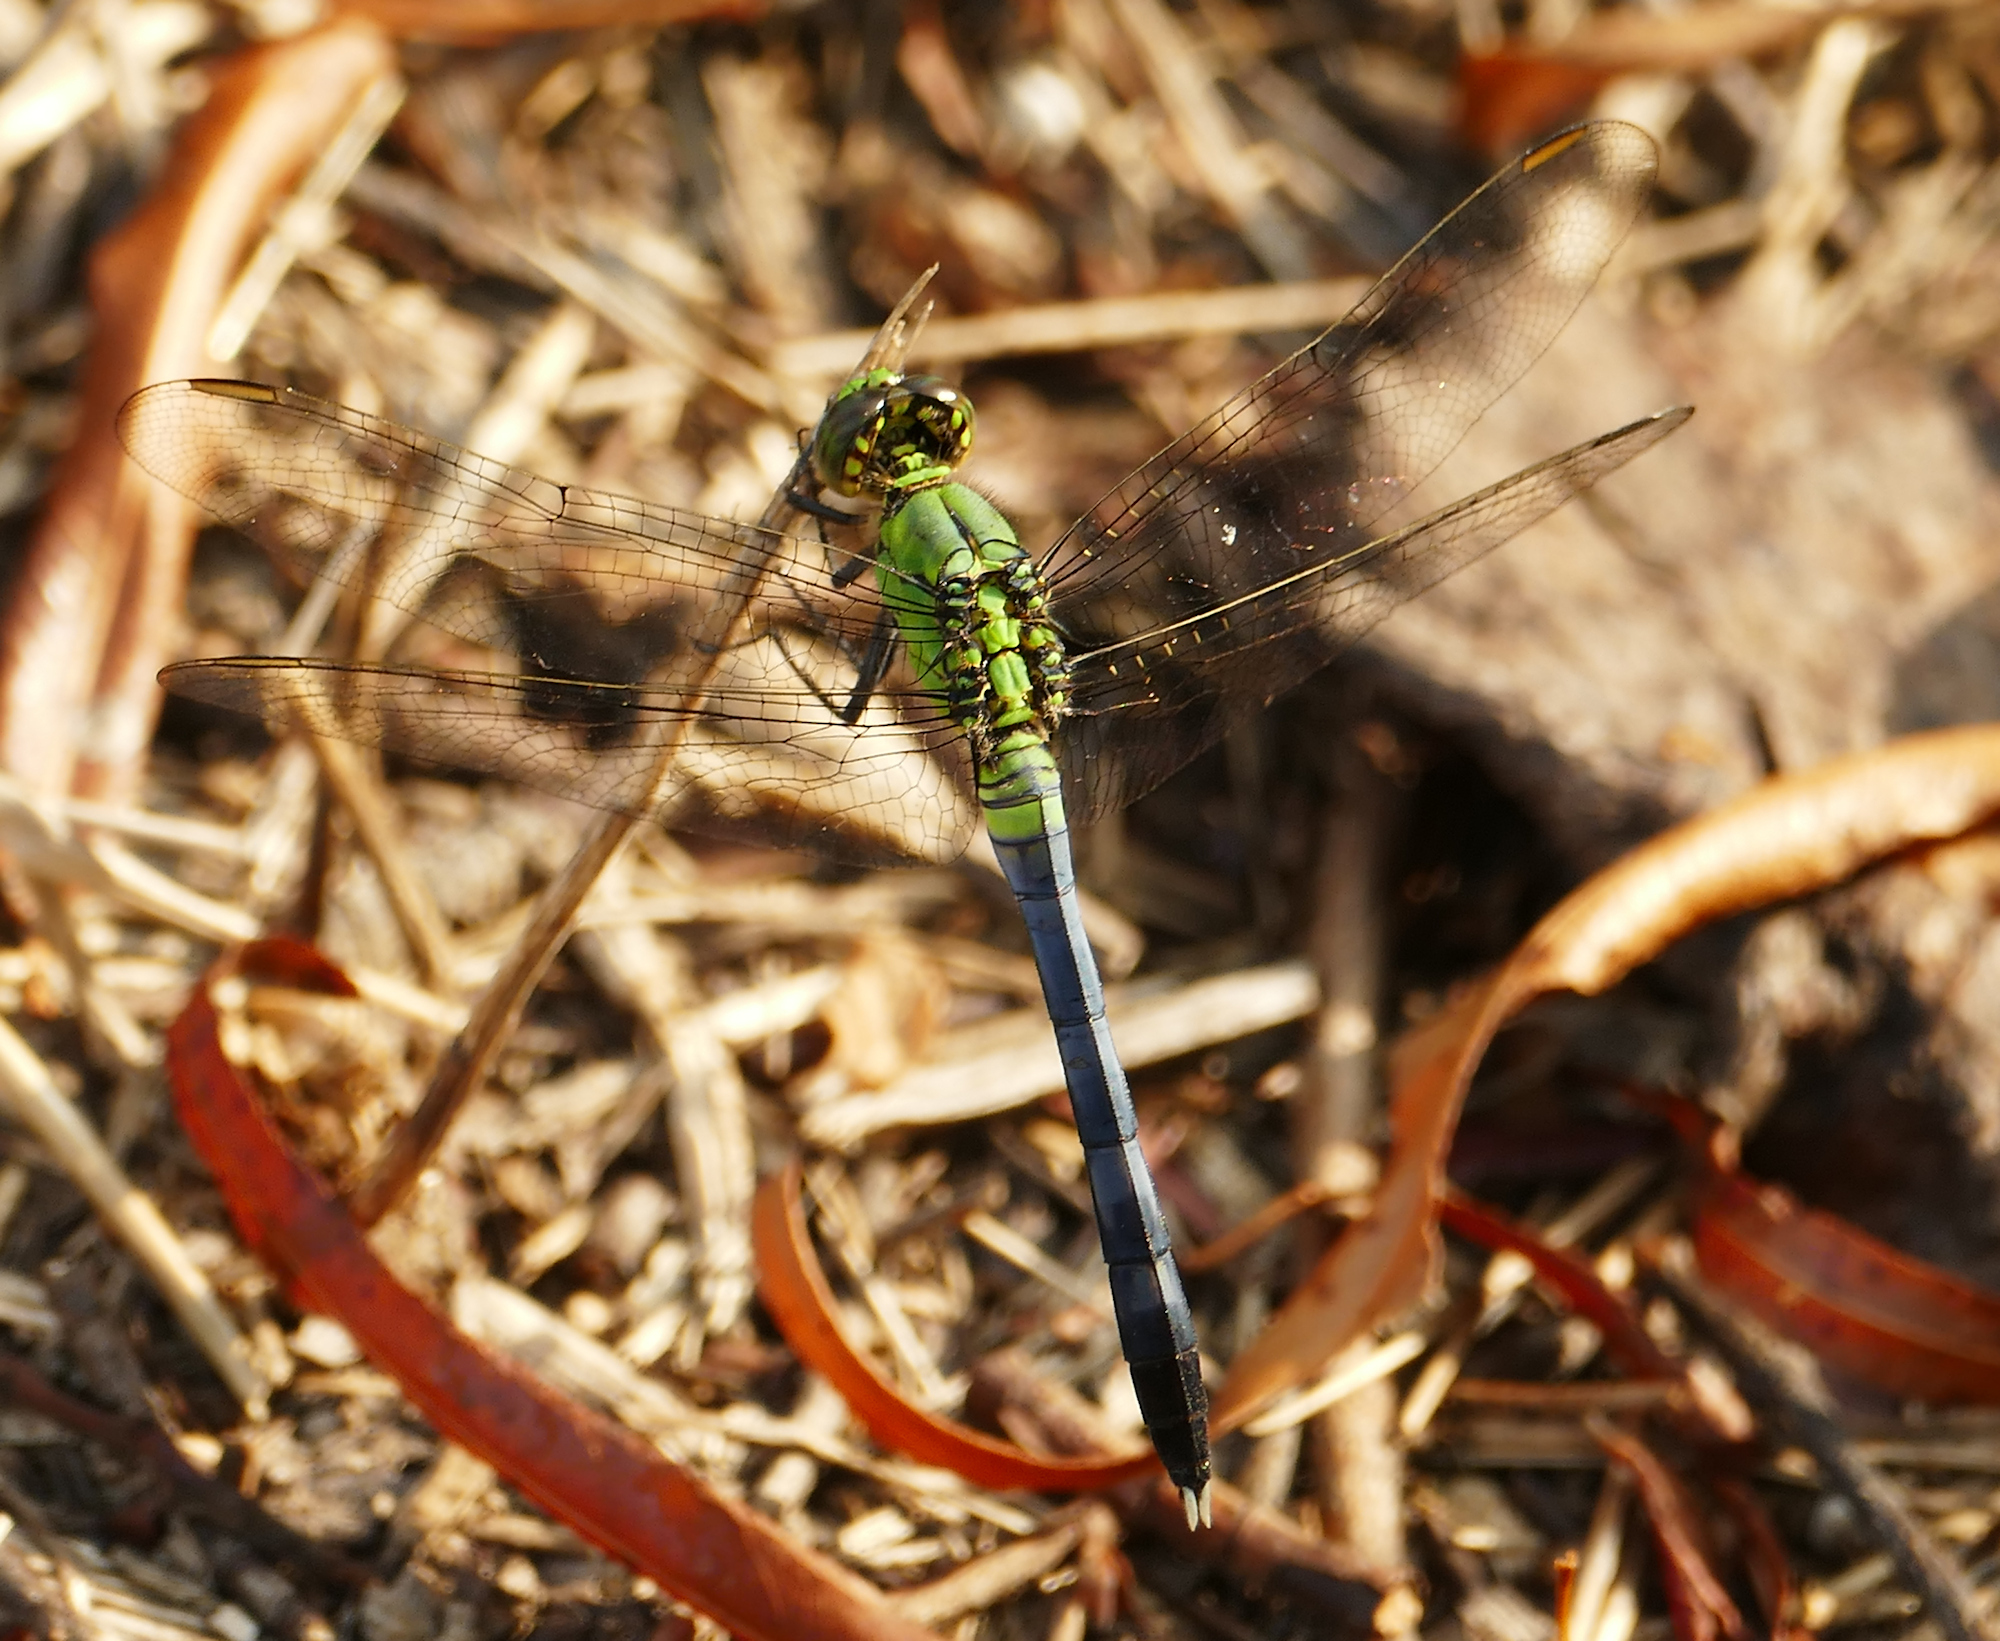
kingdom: Animalia
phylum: Arthropoda
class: Insecta
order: Odonata
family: Libellulidae
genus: Erythemis
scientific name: Erythemis simplicicollis
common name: Eastern pondhawk
